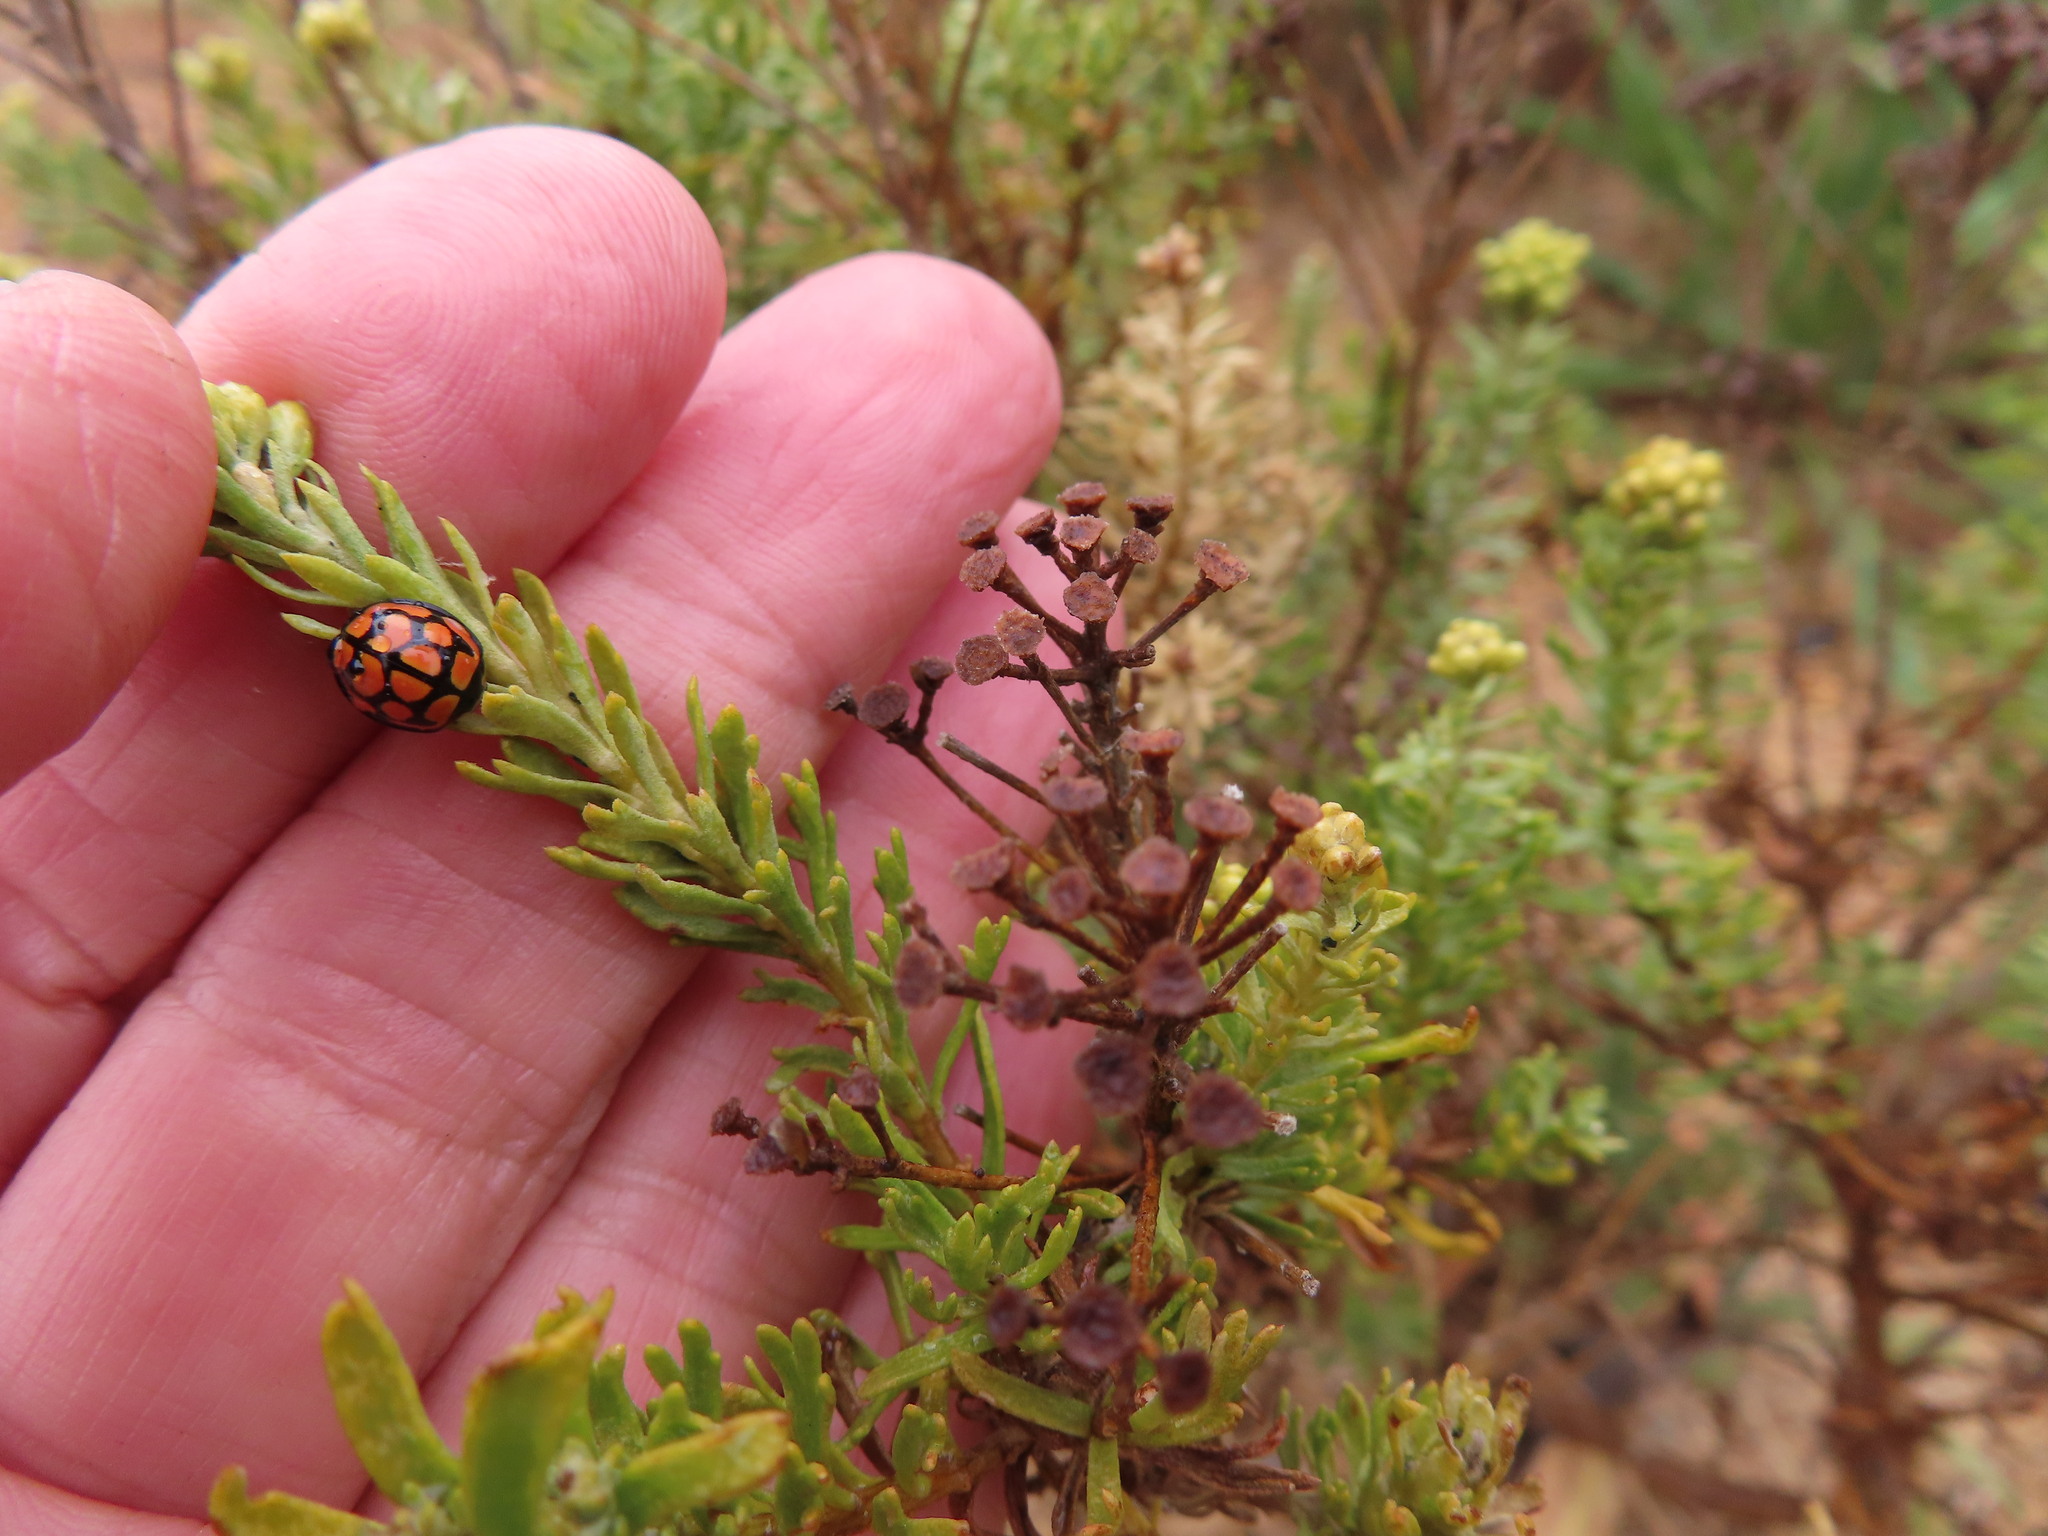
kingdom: Animalia
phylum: Arthropoda
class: Insecta
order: Coleoptera
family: Coccinellidae
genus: Cheilomenes
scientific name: Cheilomenes lunata
